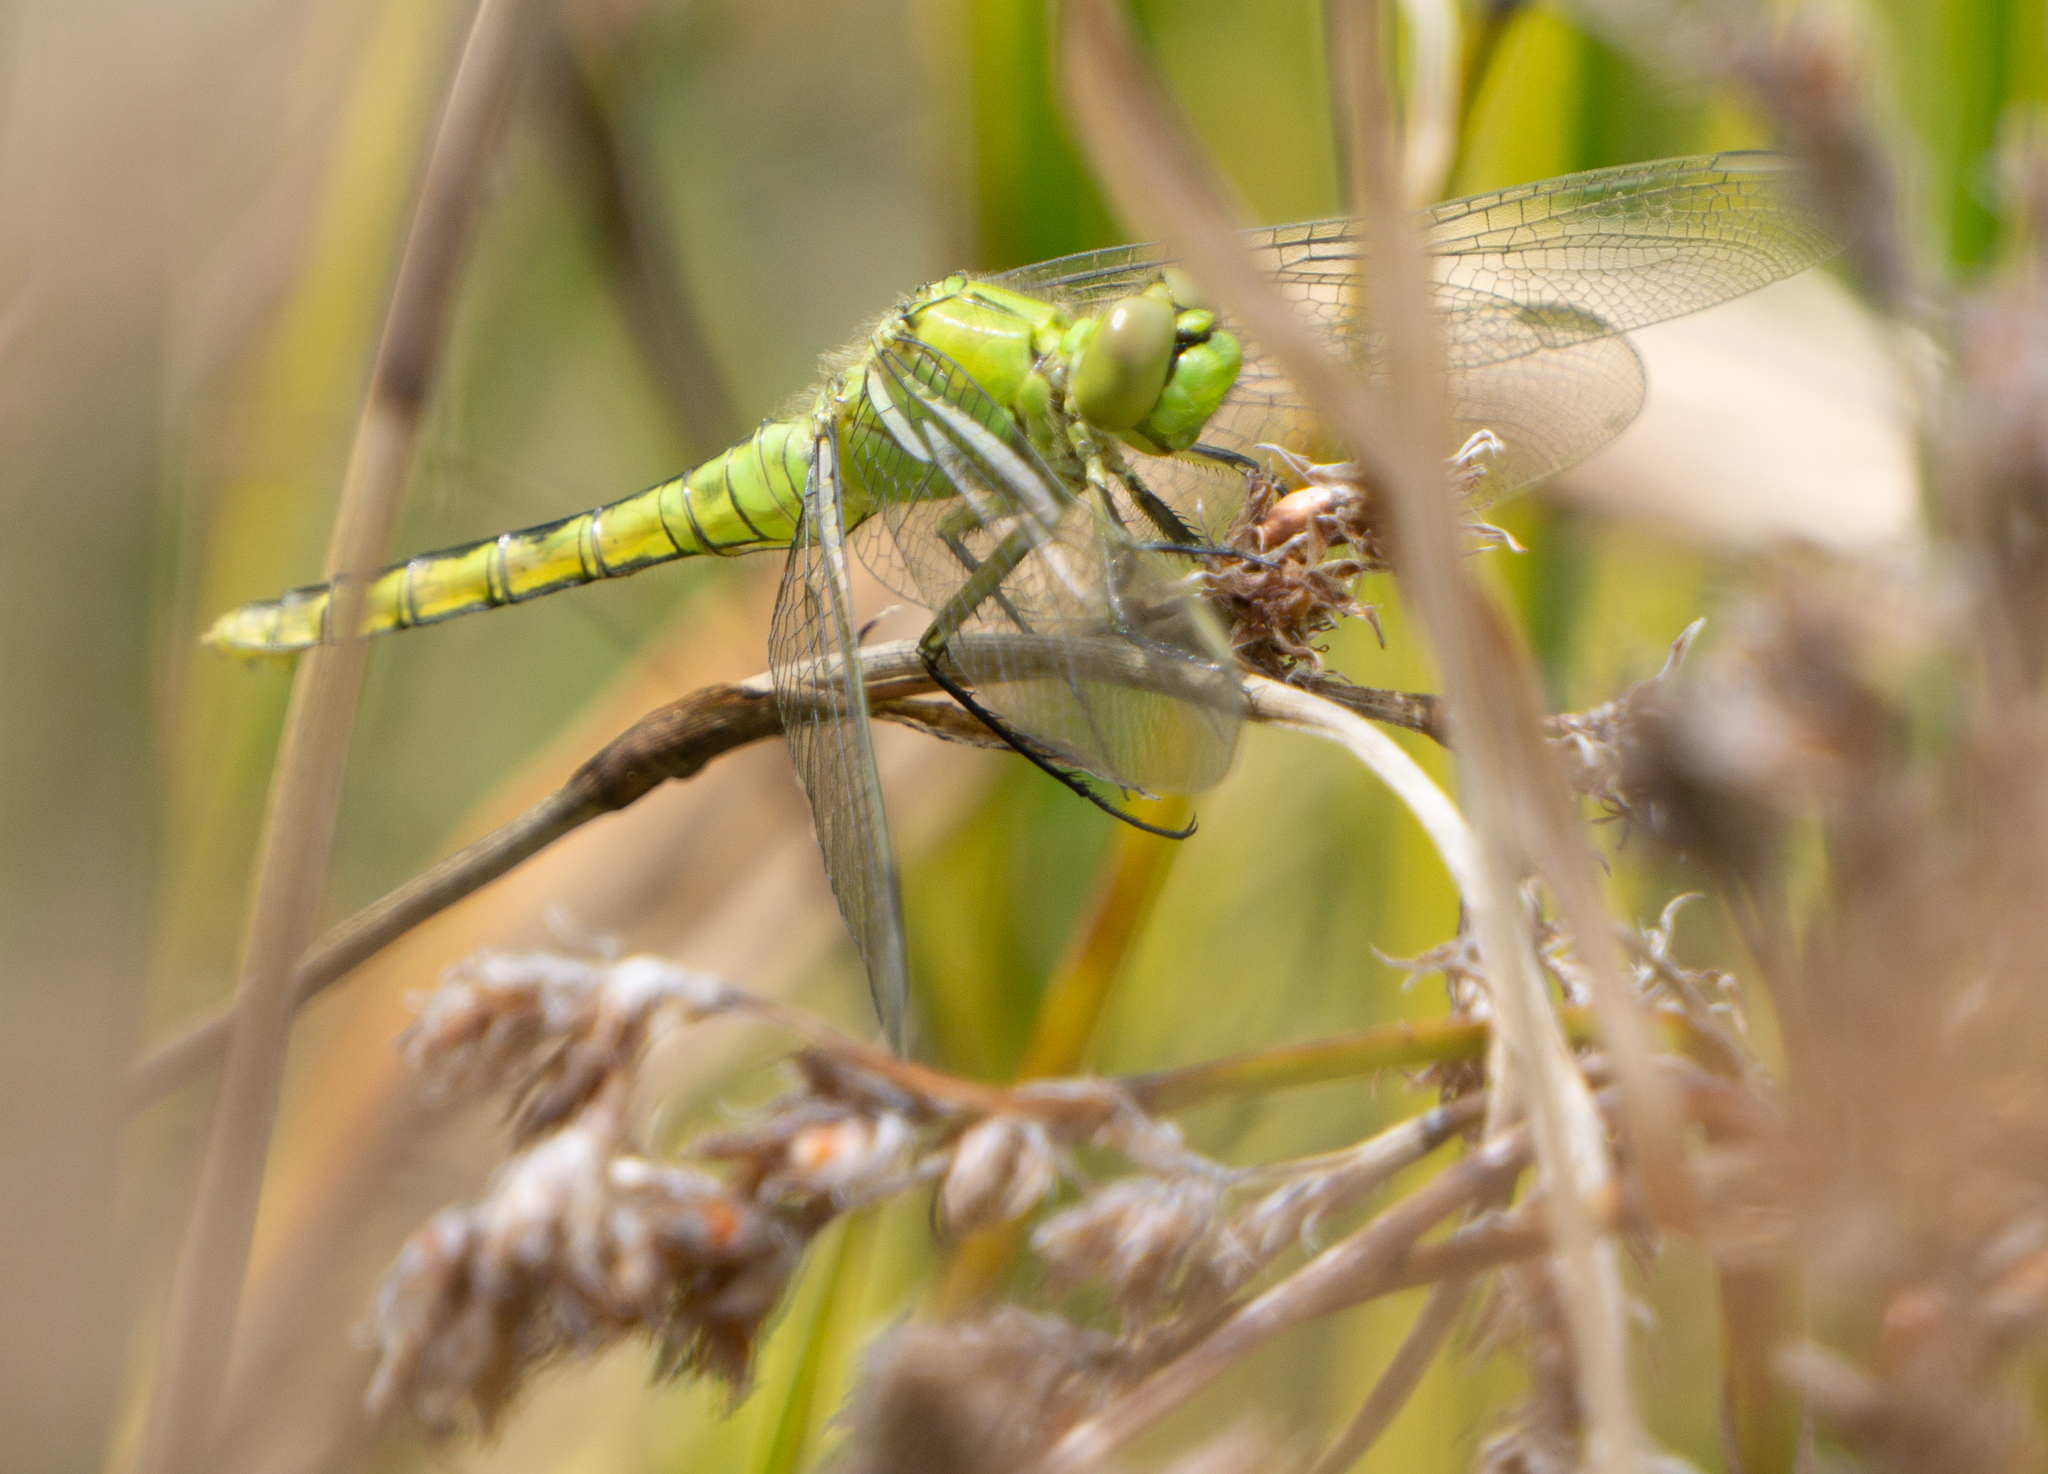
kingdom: Animalia
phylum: Arthropoda
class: Insecta
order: Odonata
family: Libellulidae
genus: Erythemis
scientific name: Erythemis collocata
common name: Western pondhawk
